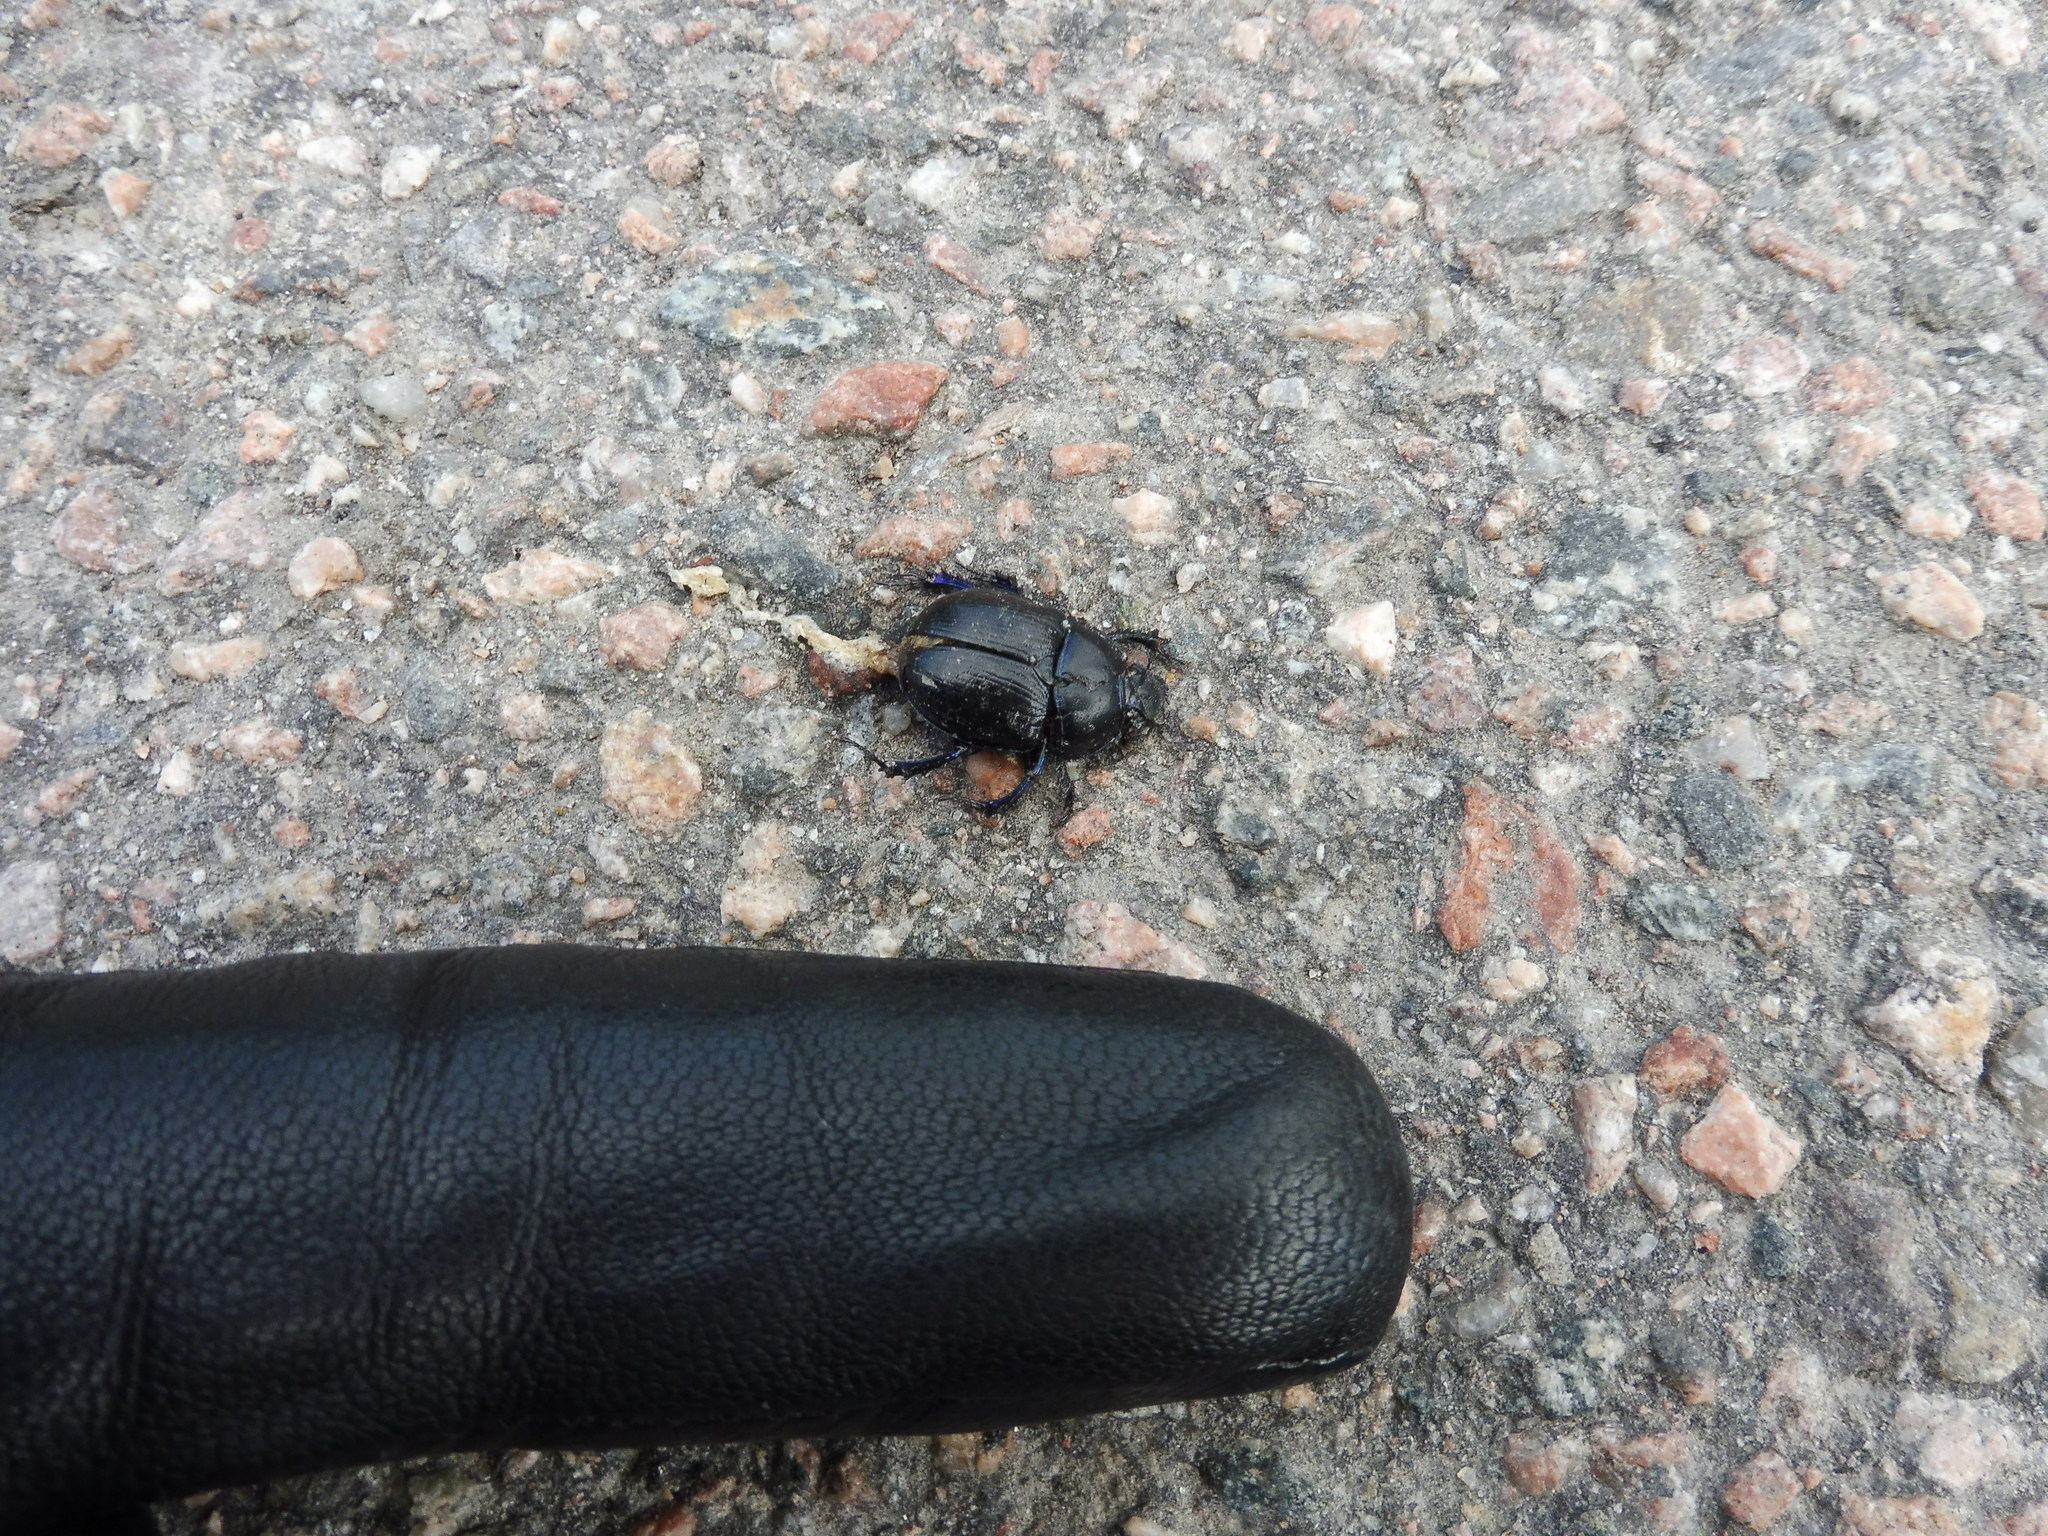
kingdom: Animalia
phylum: Arthropoda
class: Insecta
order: Coleoptera
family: Geotrupidae
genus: Anoplotrupes
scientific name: Anoplotrupes stercorosus
